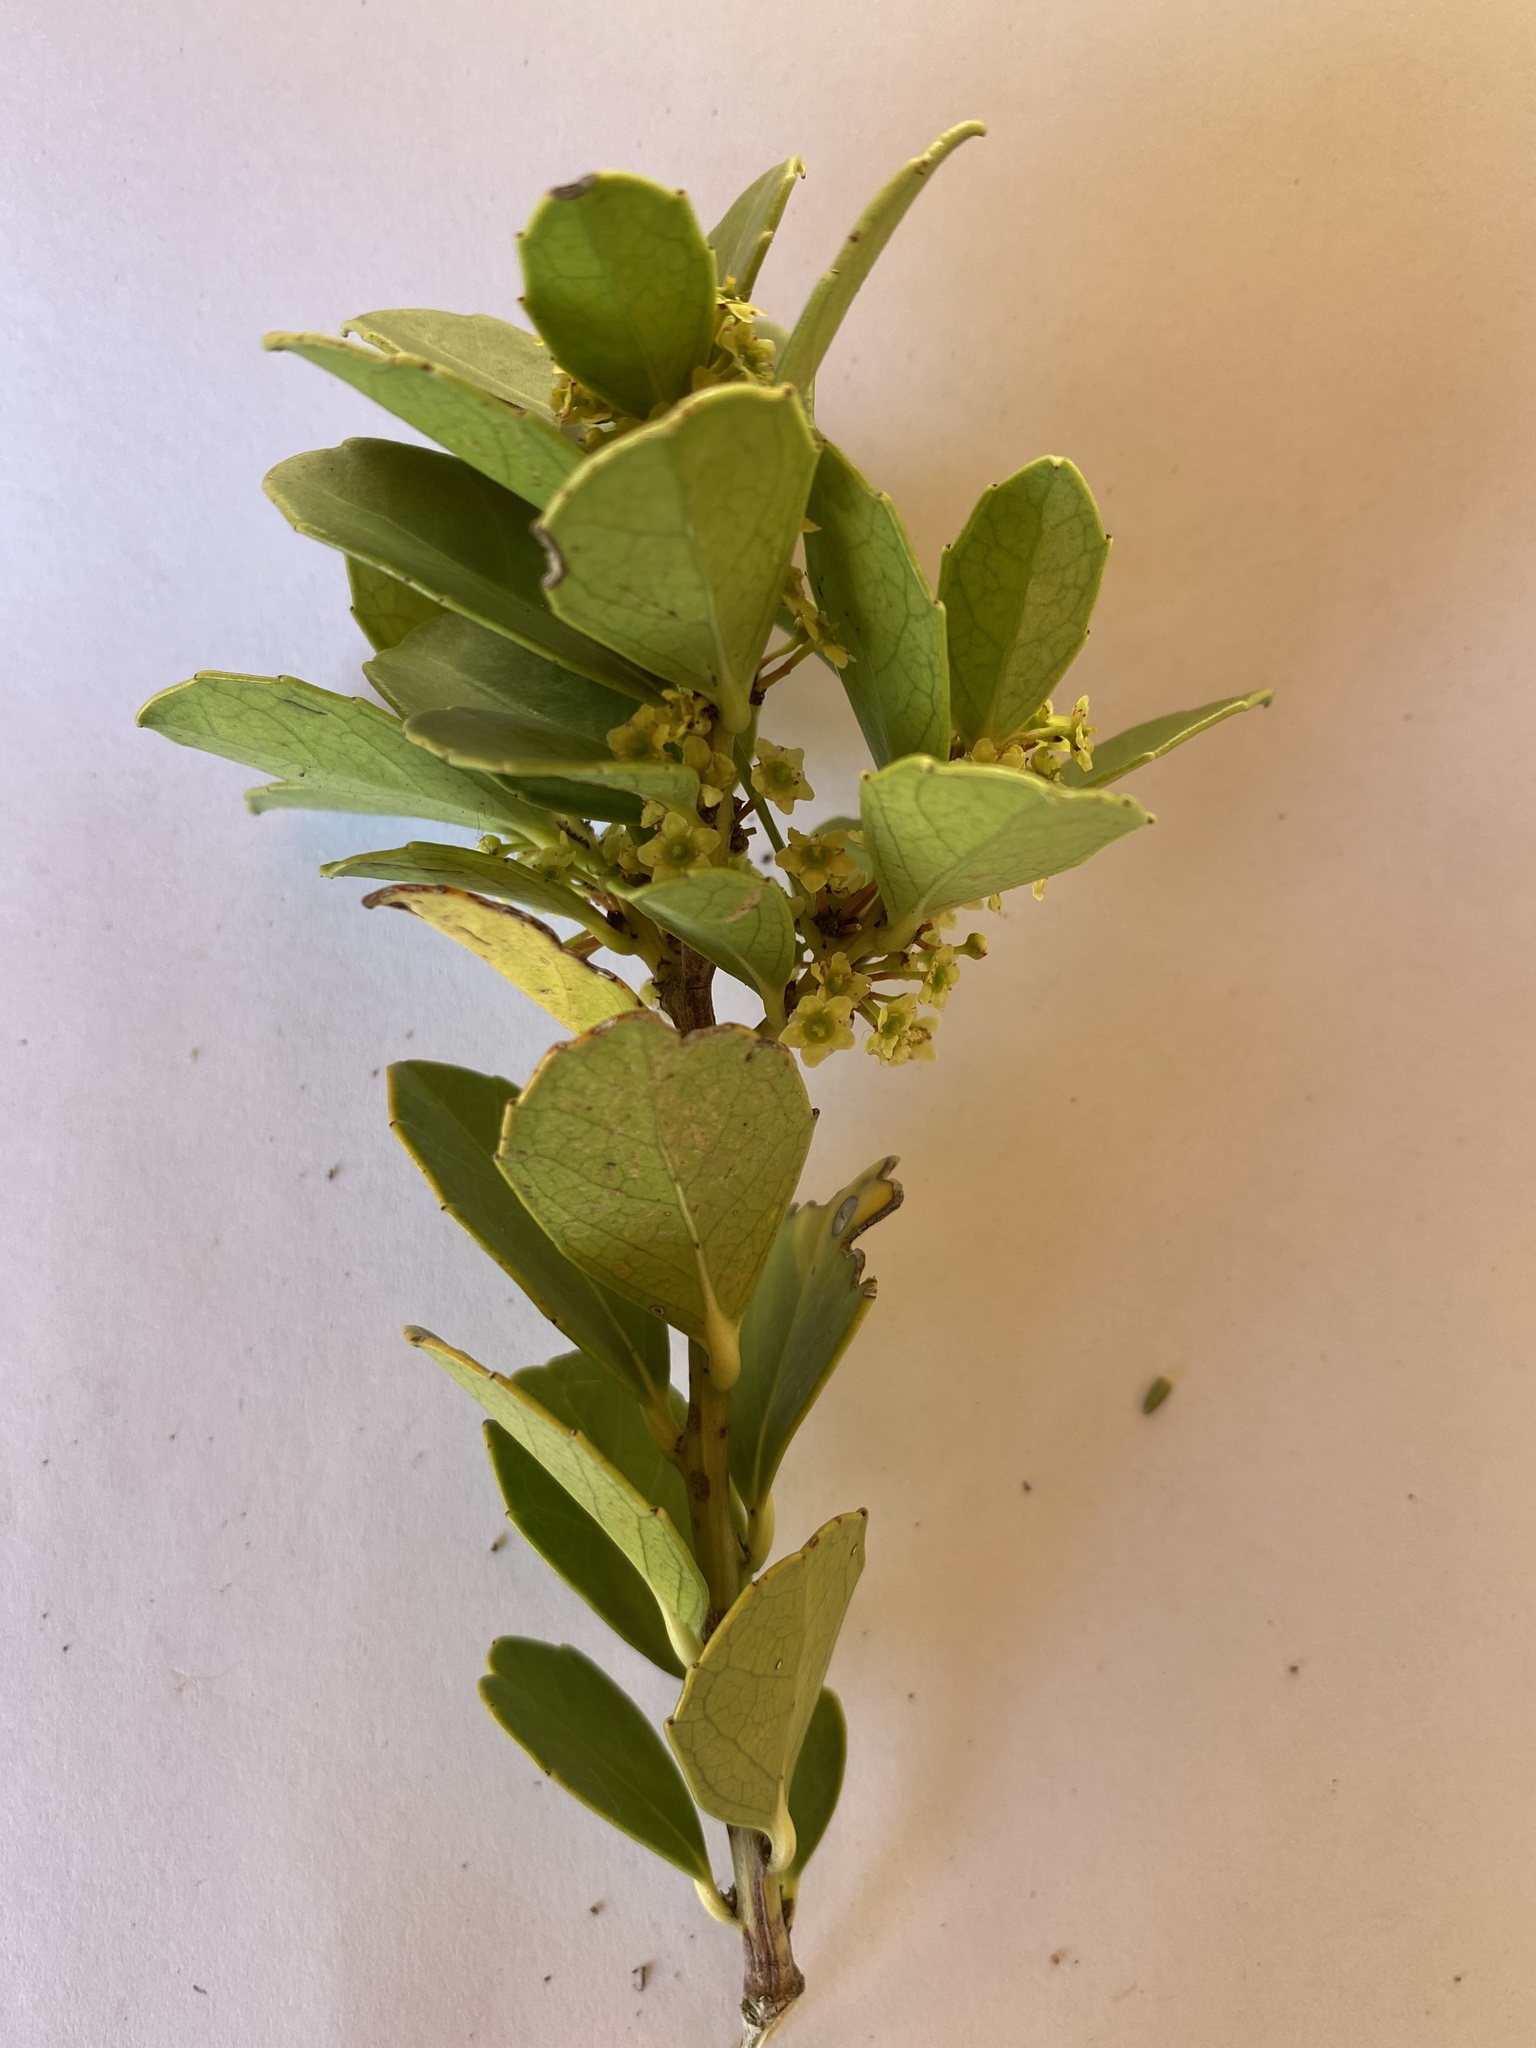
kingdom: Plantae
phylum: Tracheophyta
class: Magnoliopsida
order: Celastrales
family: Celastraceae
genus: Gymnosporia
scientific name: Gymnosporia procumbens
